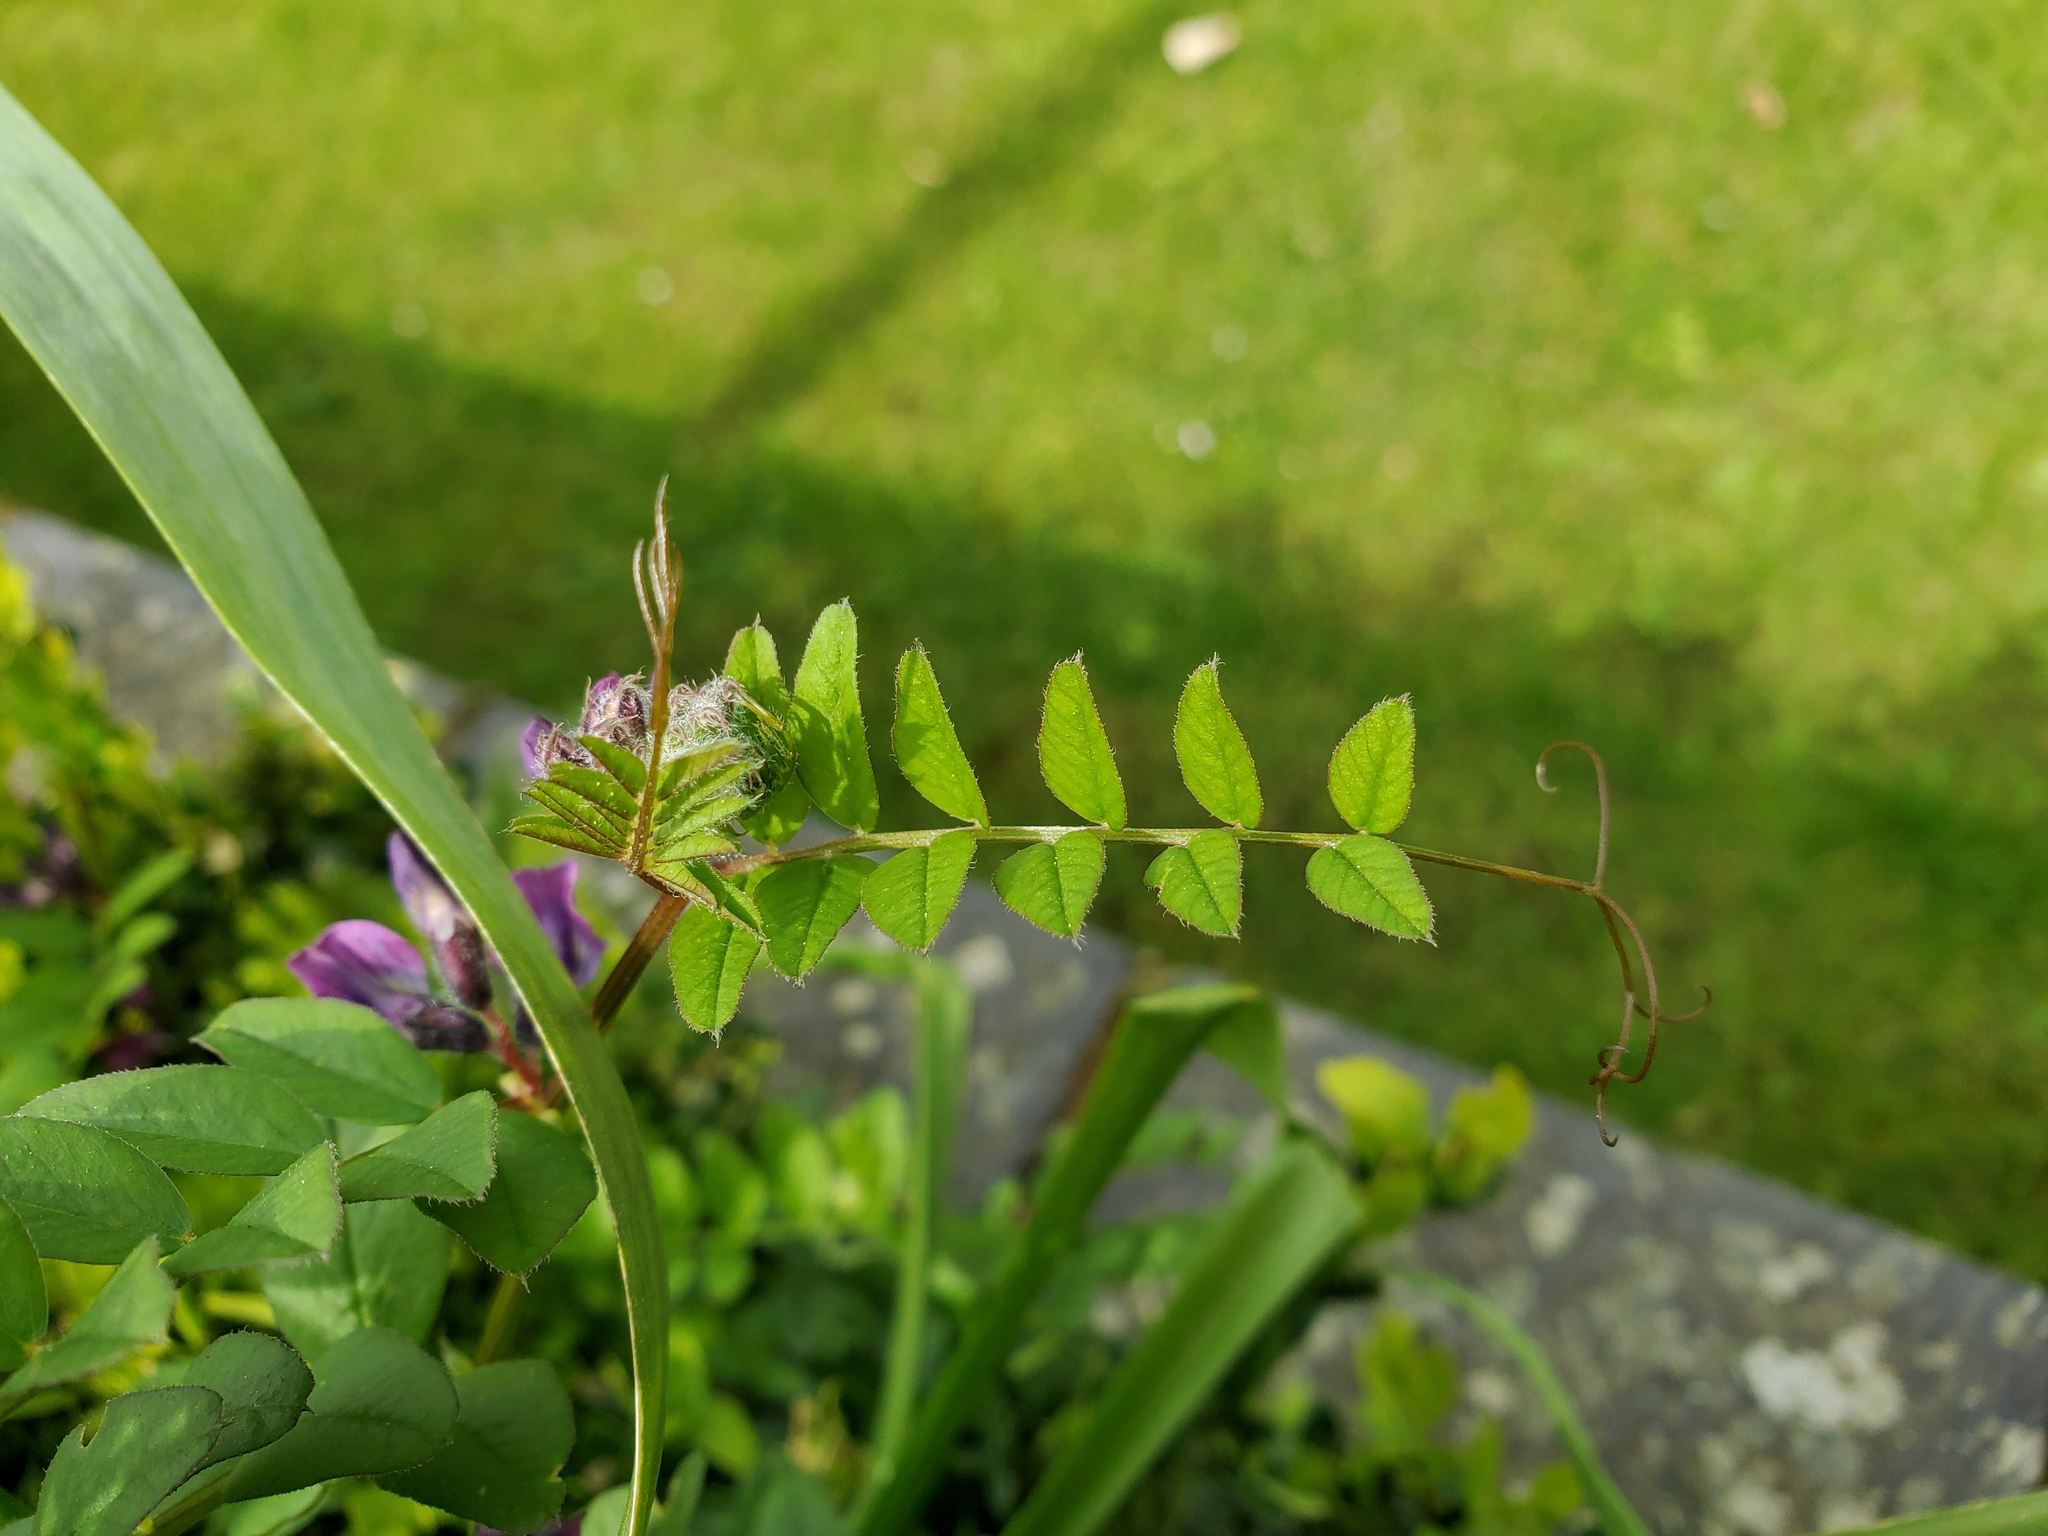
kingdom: Plantae
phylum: Tracheophyta
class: Magnoliopsida
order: Fabales
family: Fabaceae
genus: Vicia
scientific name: Vicia sepium
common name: Bush vetch
